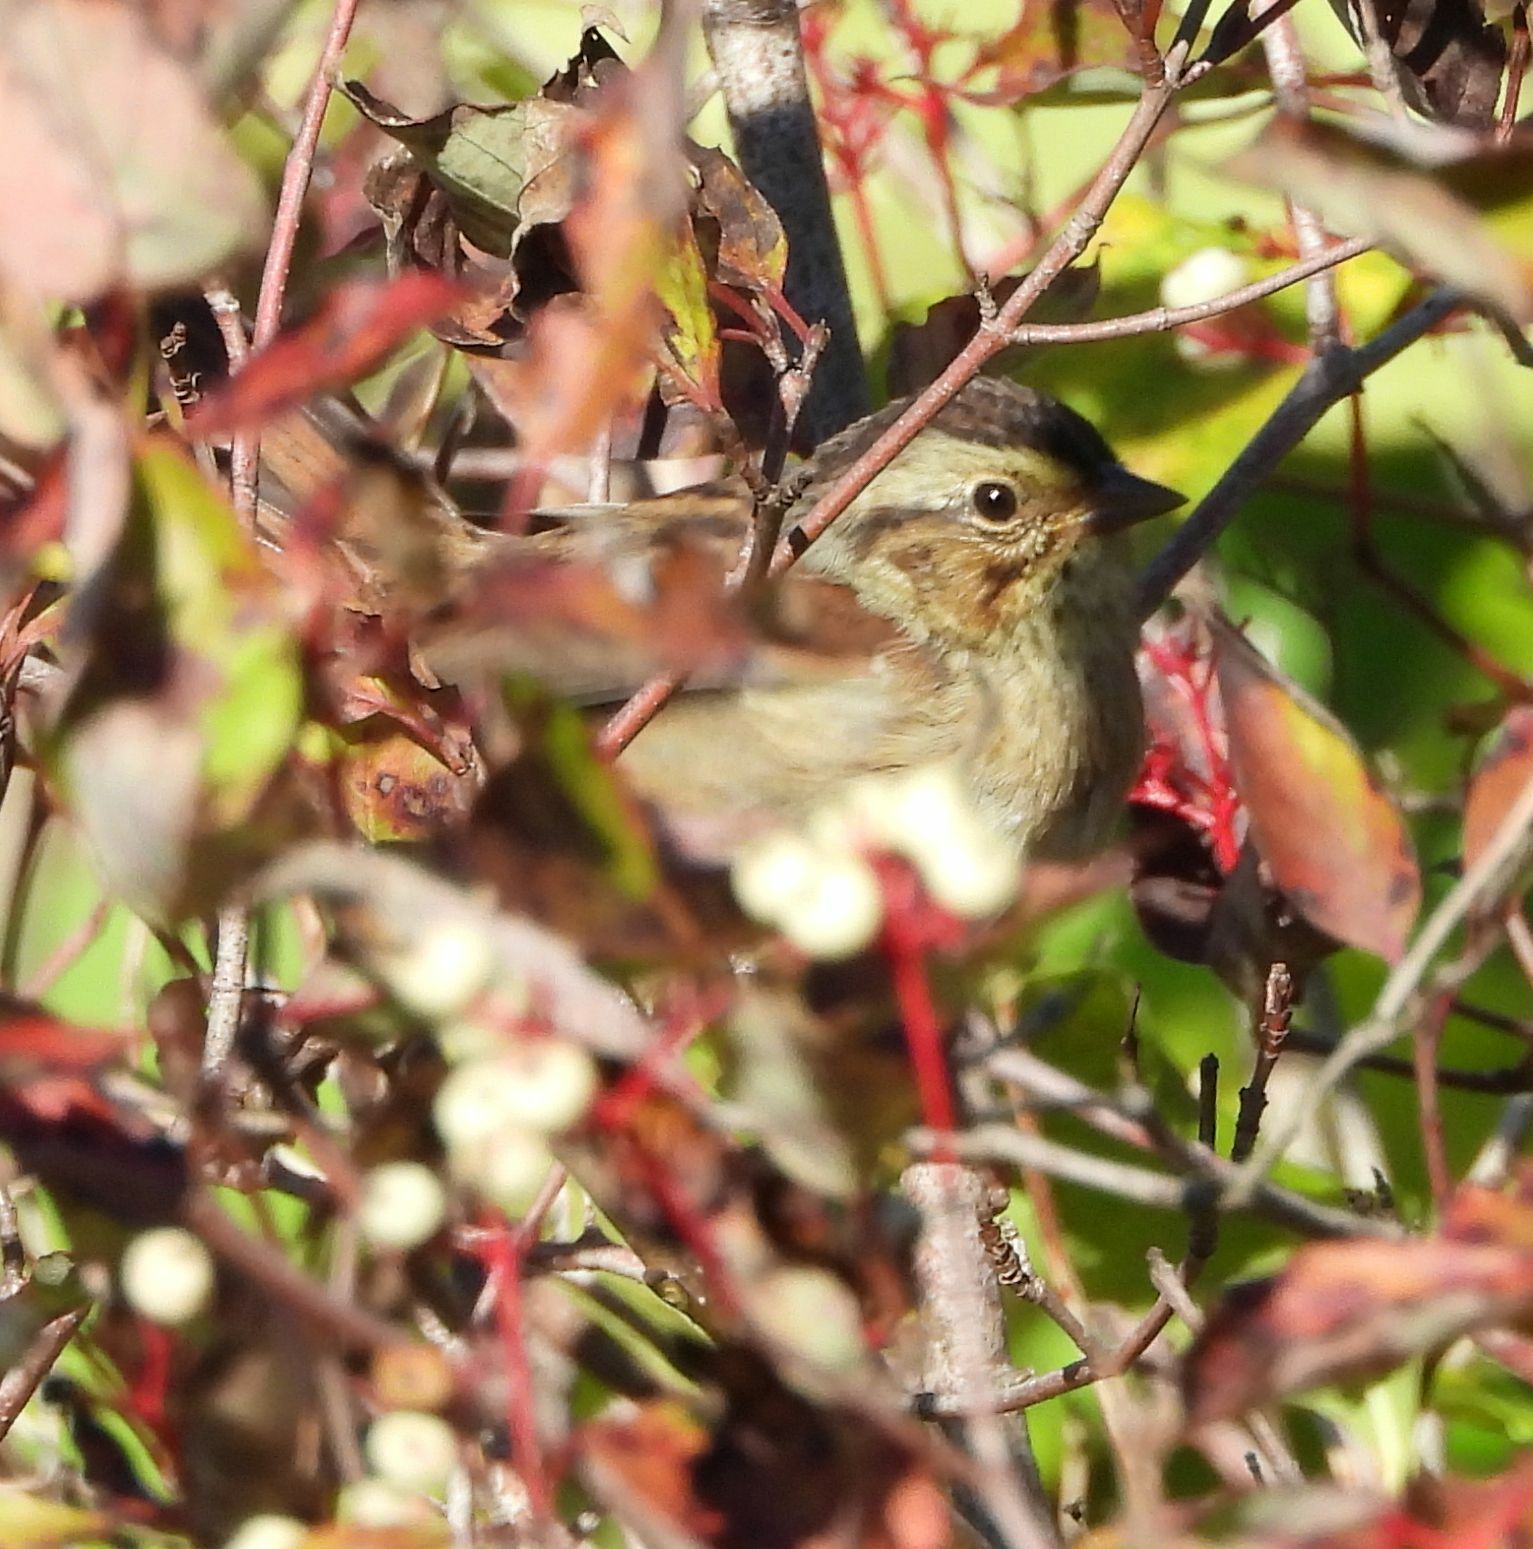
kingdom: Animalia
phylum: Chordata
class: Aves
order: Passeriformes
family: Passerellidae
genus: Melospiza
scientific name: Melospiza georgiana
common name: Swamp sparrow
